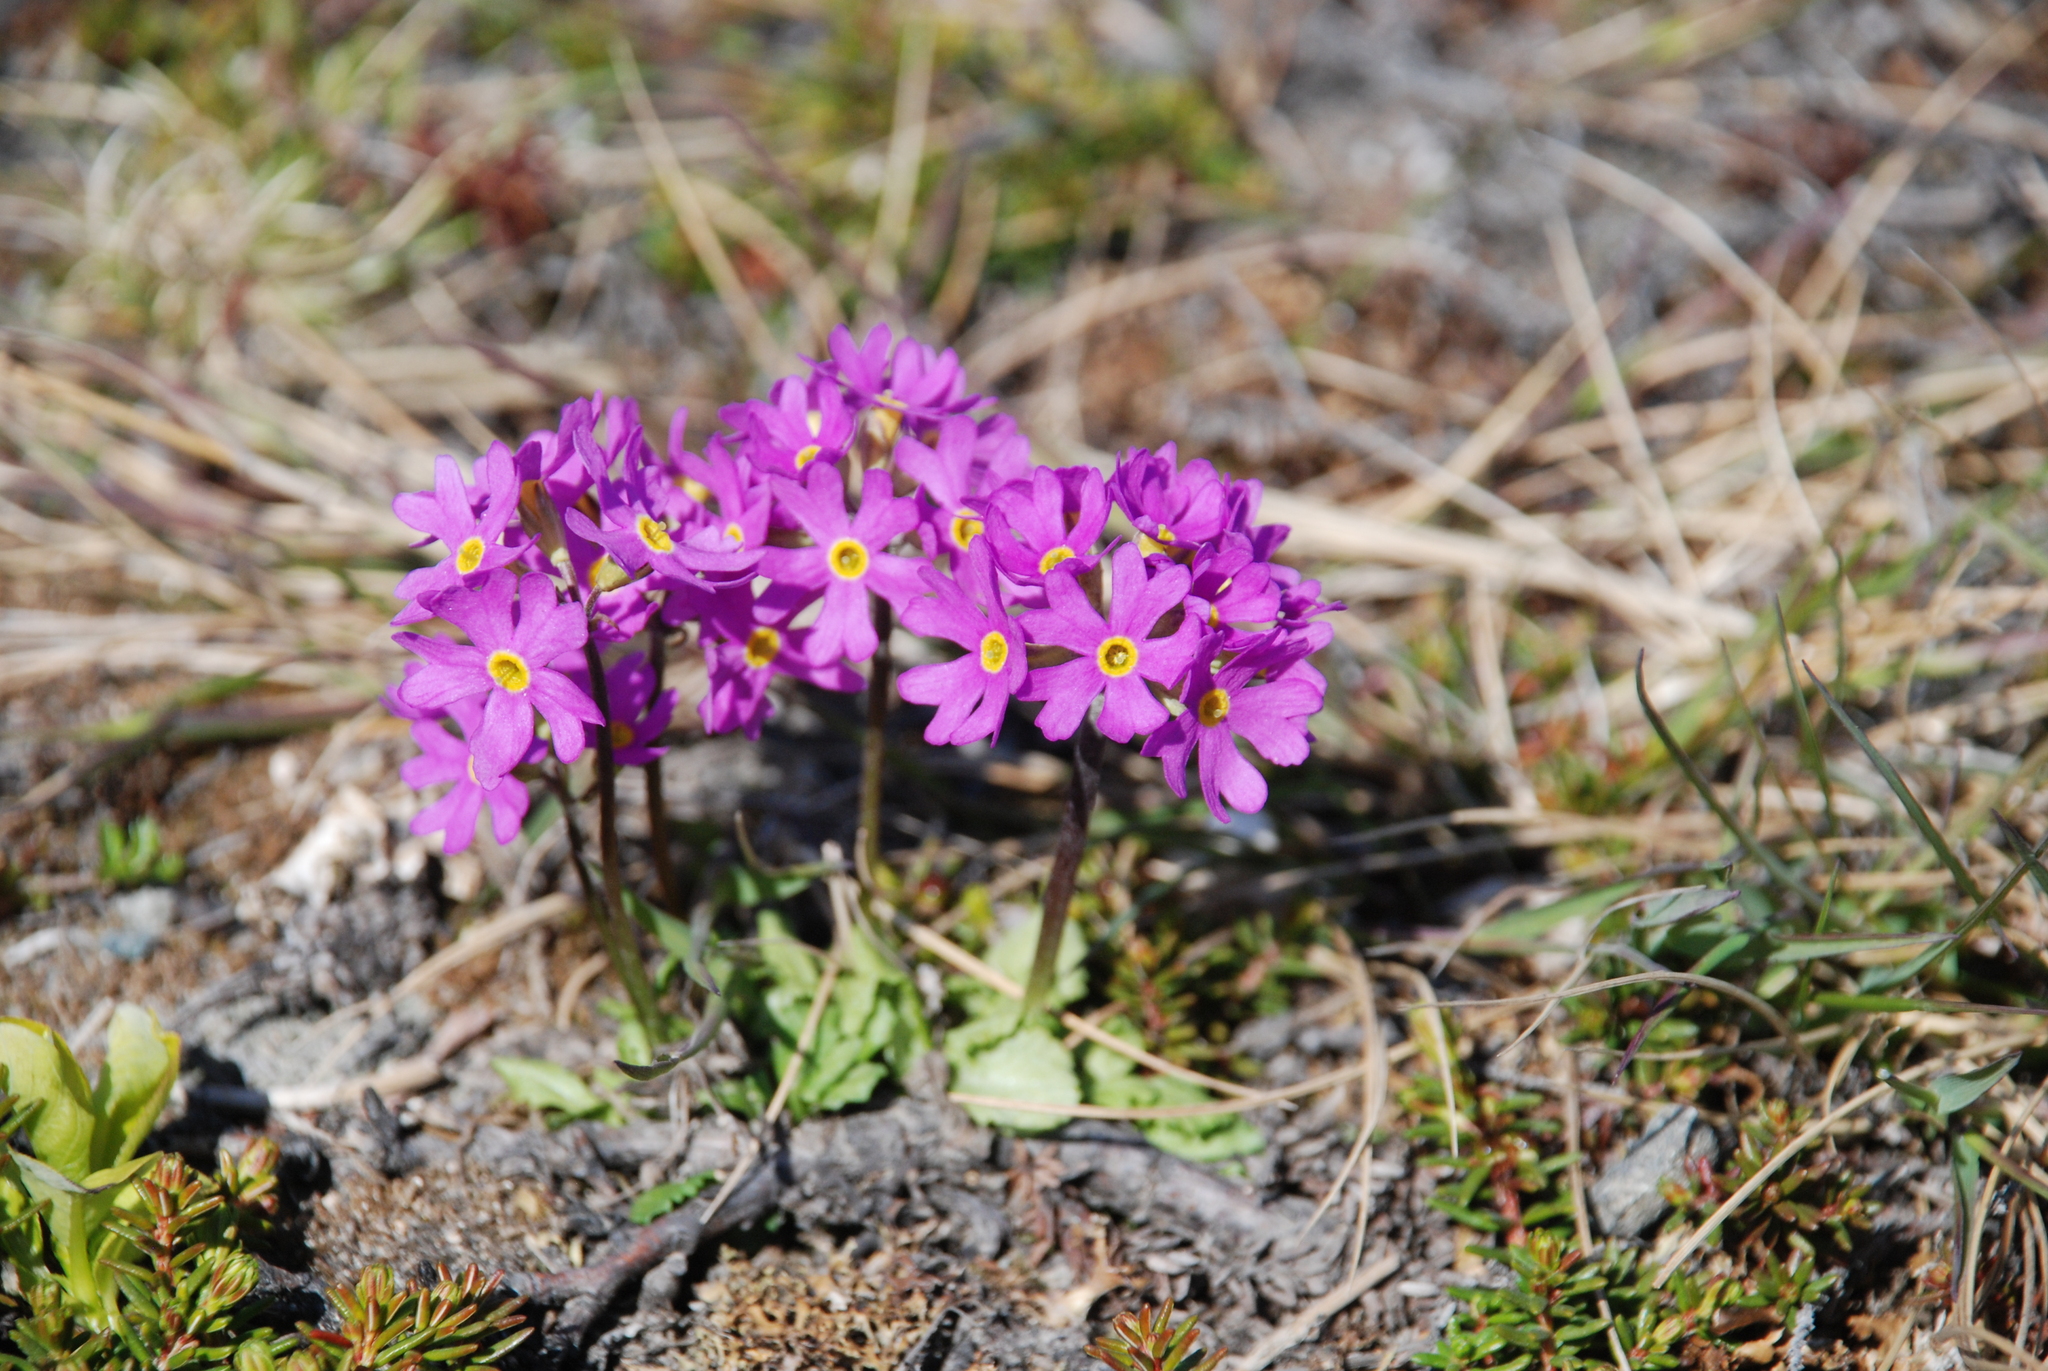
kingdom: Plantae
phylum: Tracheophyta
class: Magnoliopsida
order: Ericales
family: Primulaceae
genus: Primula
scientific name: Primula borealis
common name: Northern primrose
